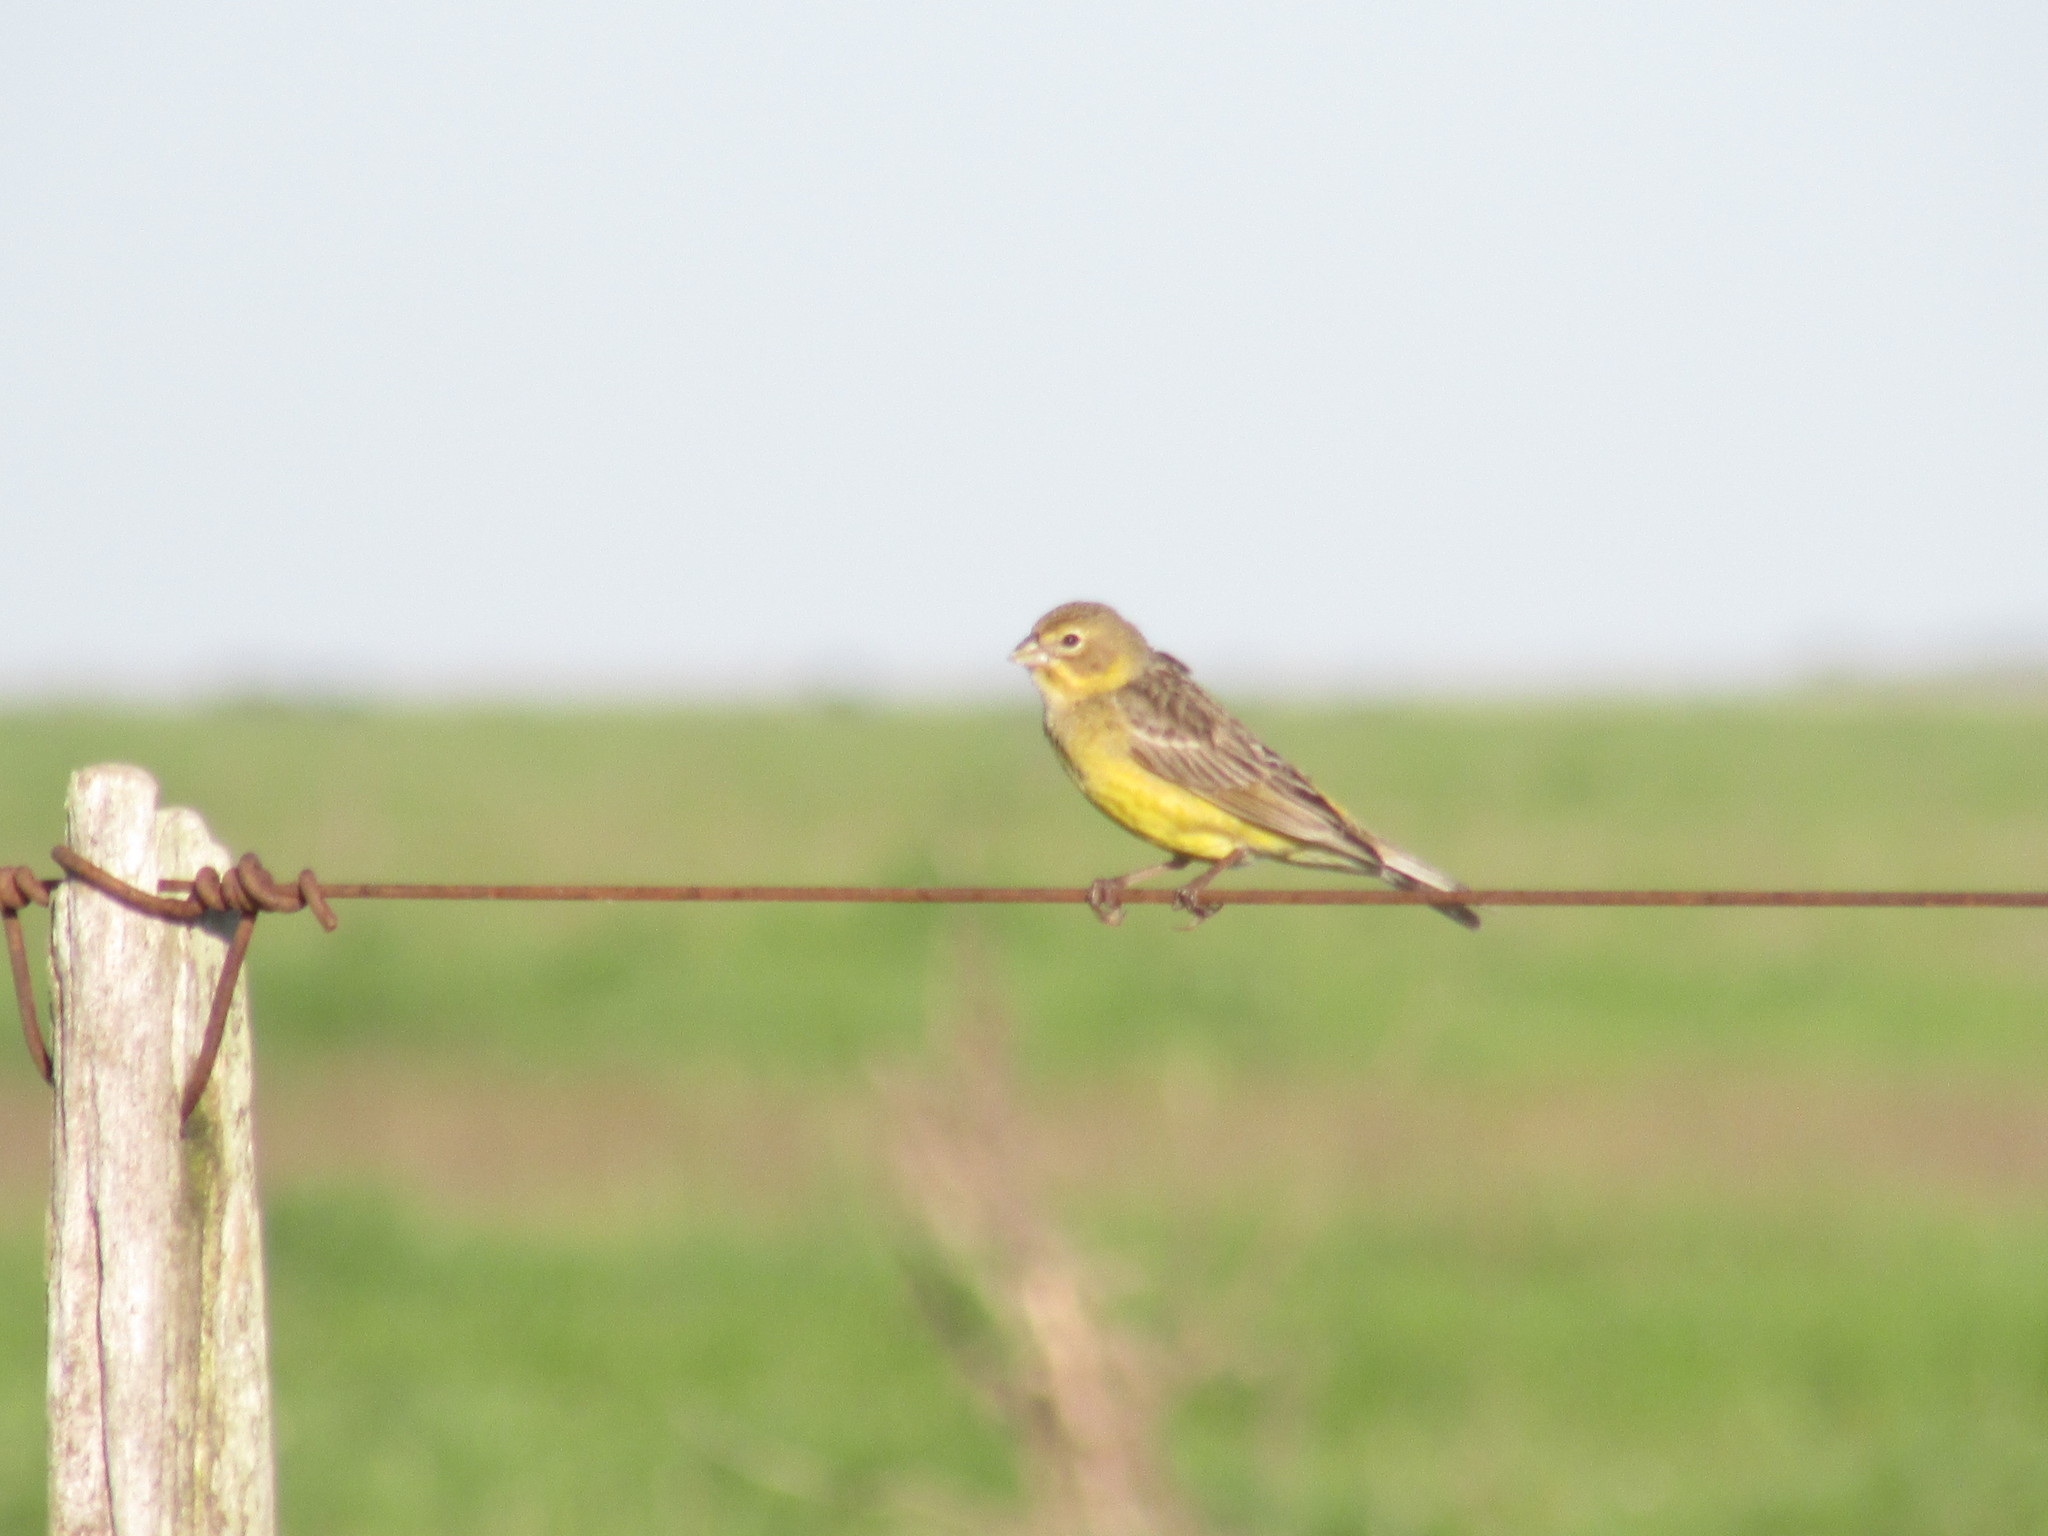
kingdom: Animalia
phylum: Chordata
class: Aves
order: Passeriformes
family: Thraupidae
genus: Sicalis
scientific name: Sicalis luteola
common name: Grassland yellow-finch
